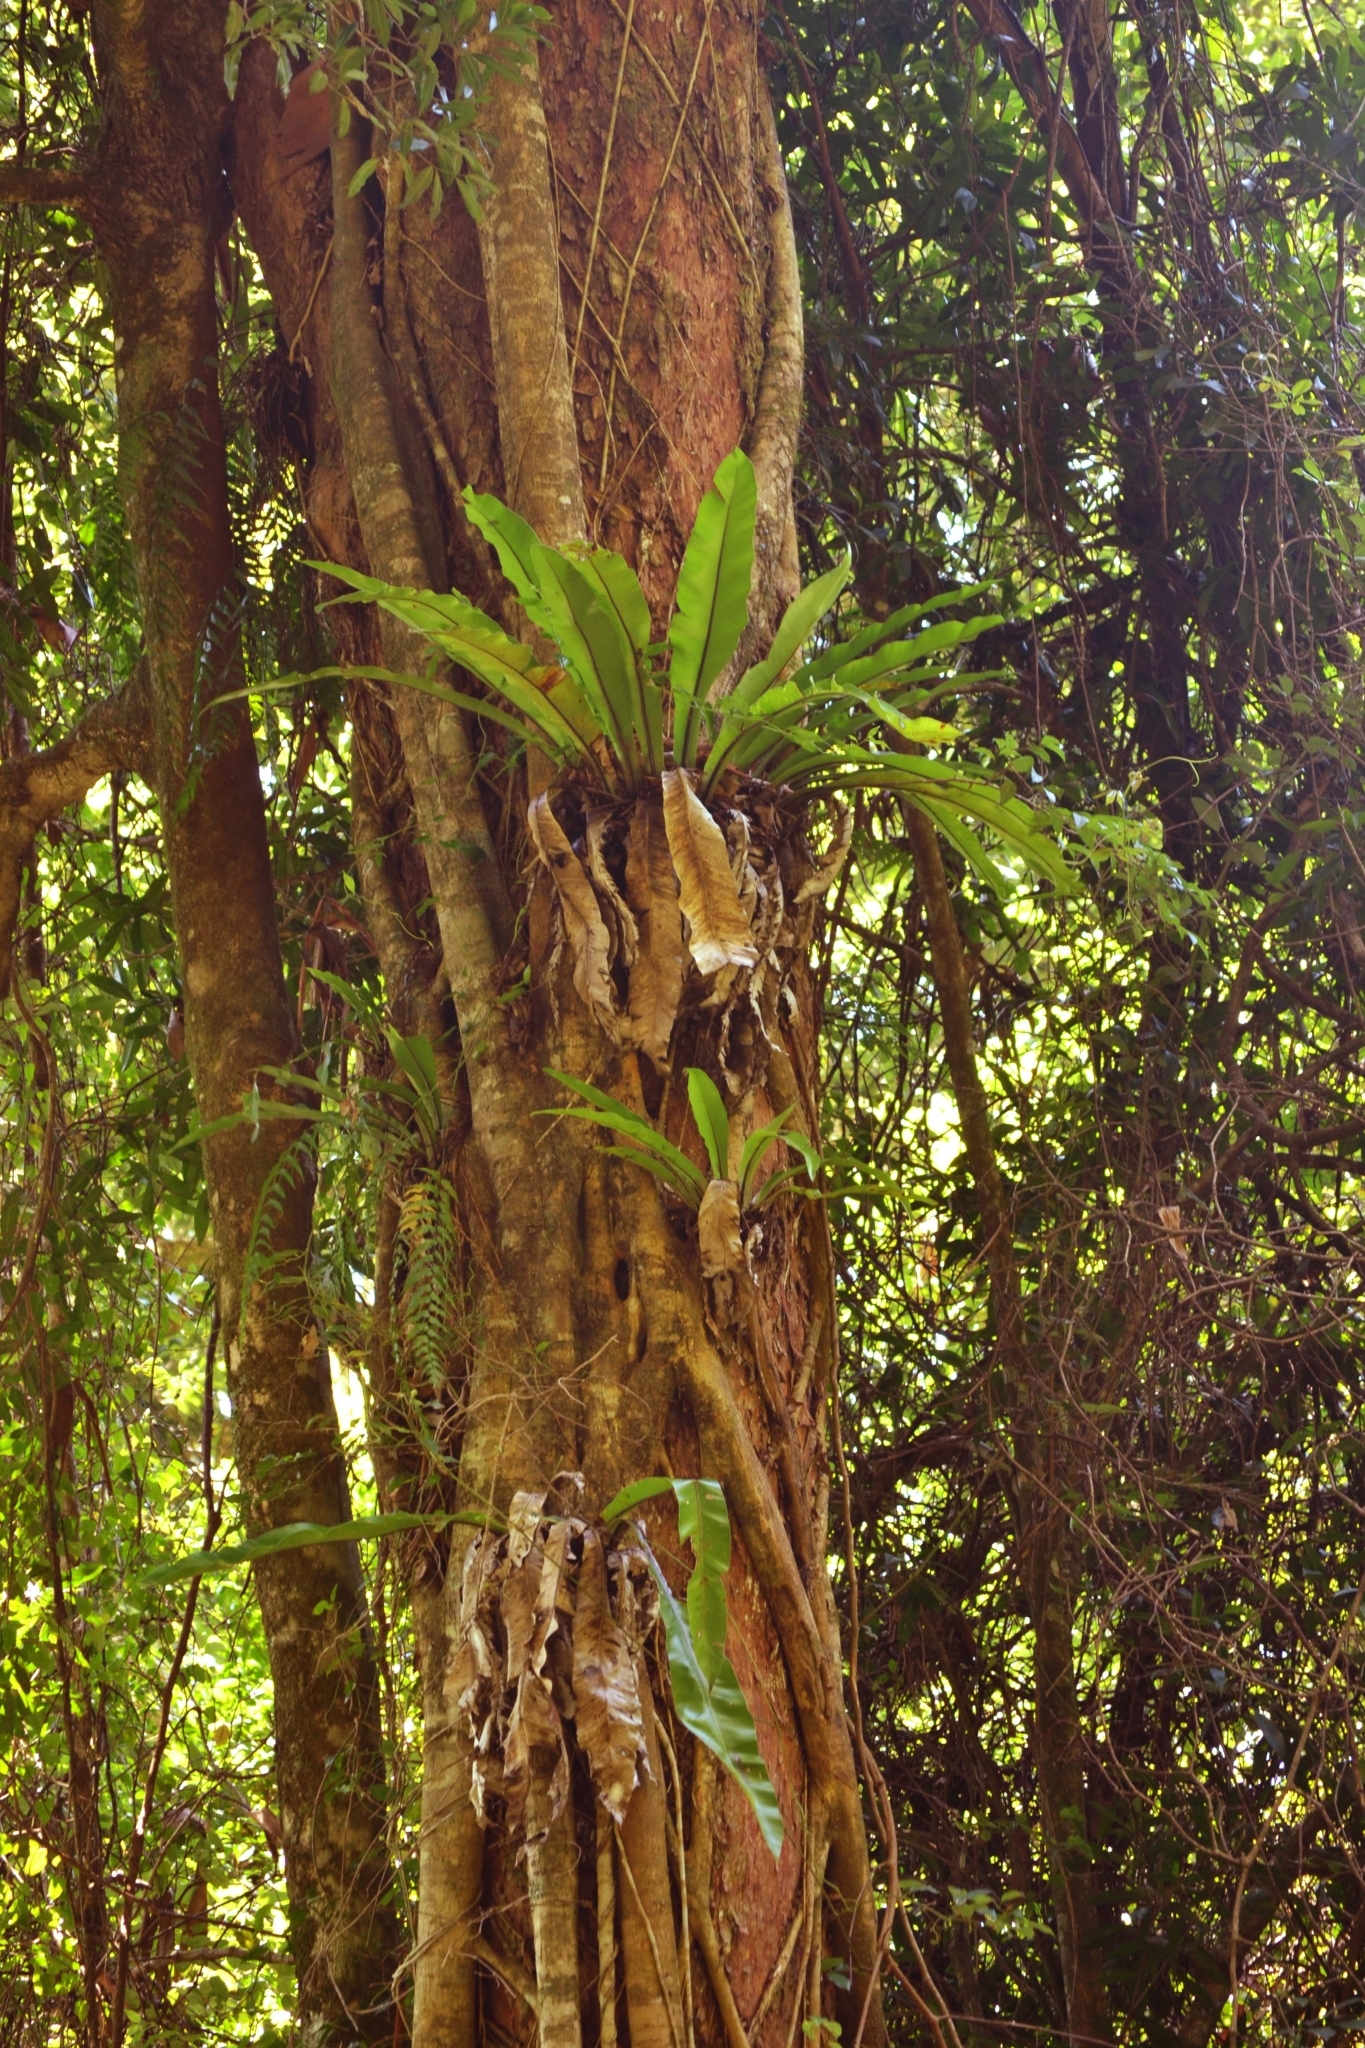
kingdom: Plantae
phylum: Tracheophyta
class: Polypodiopsida
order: Polypodiales
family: Aspleniaceae
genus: Asplenium
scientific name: Asplenium australasicum
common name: Bird's-nest fern
